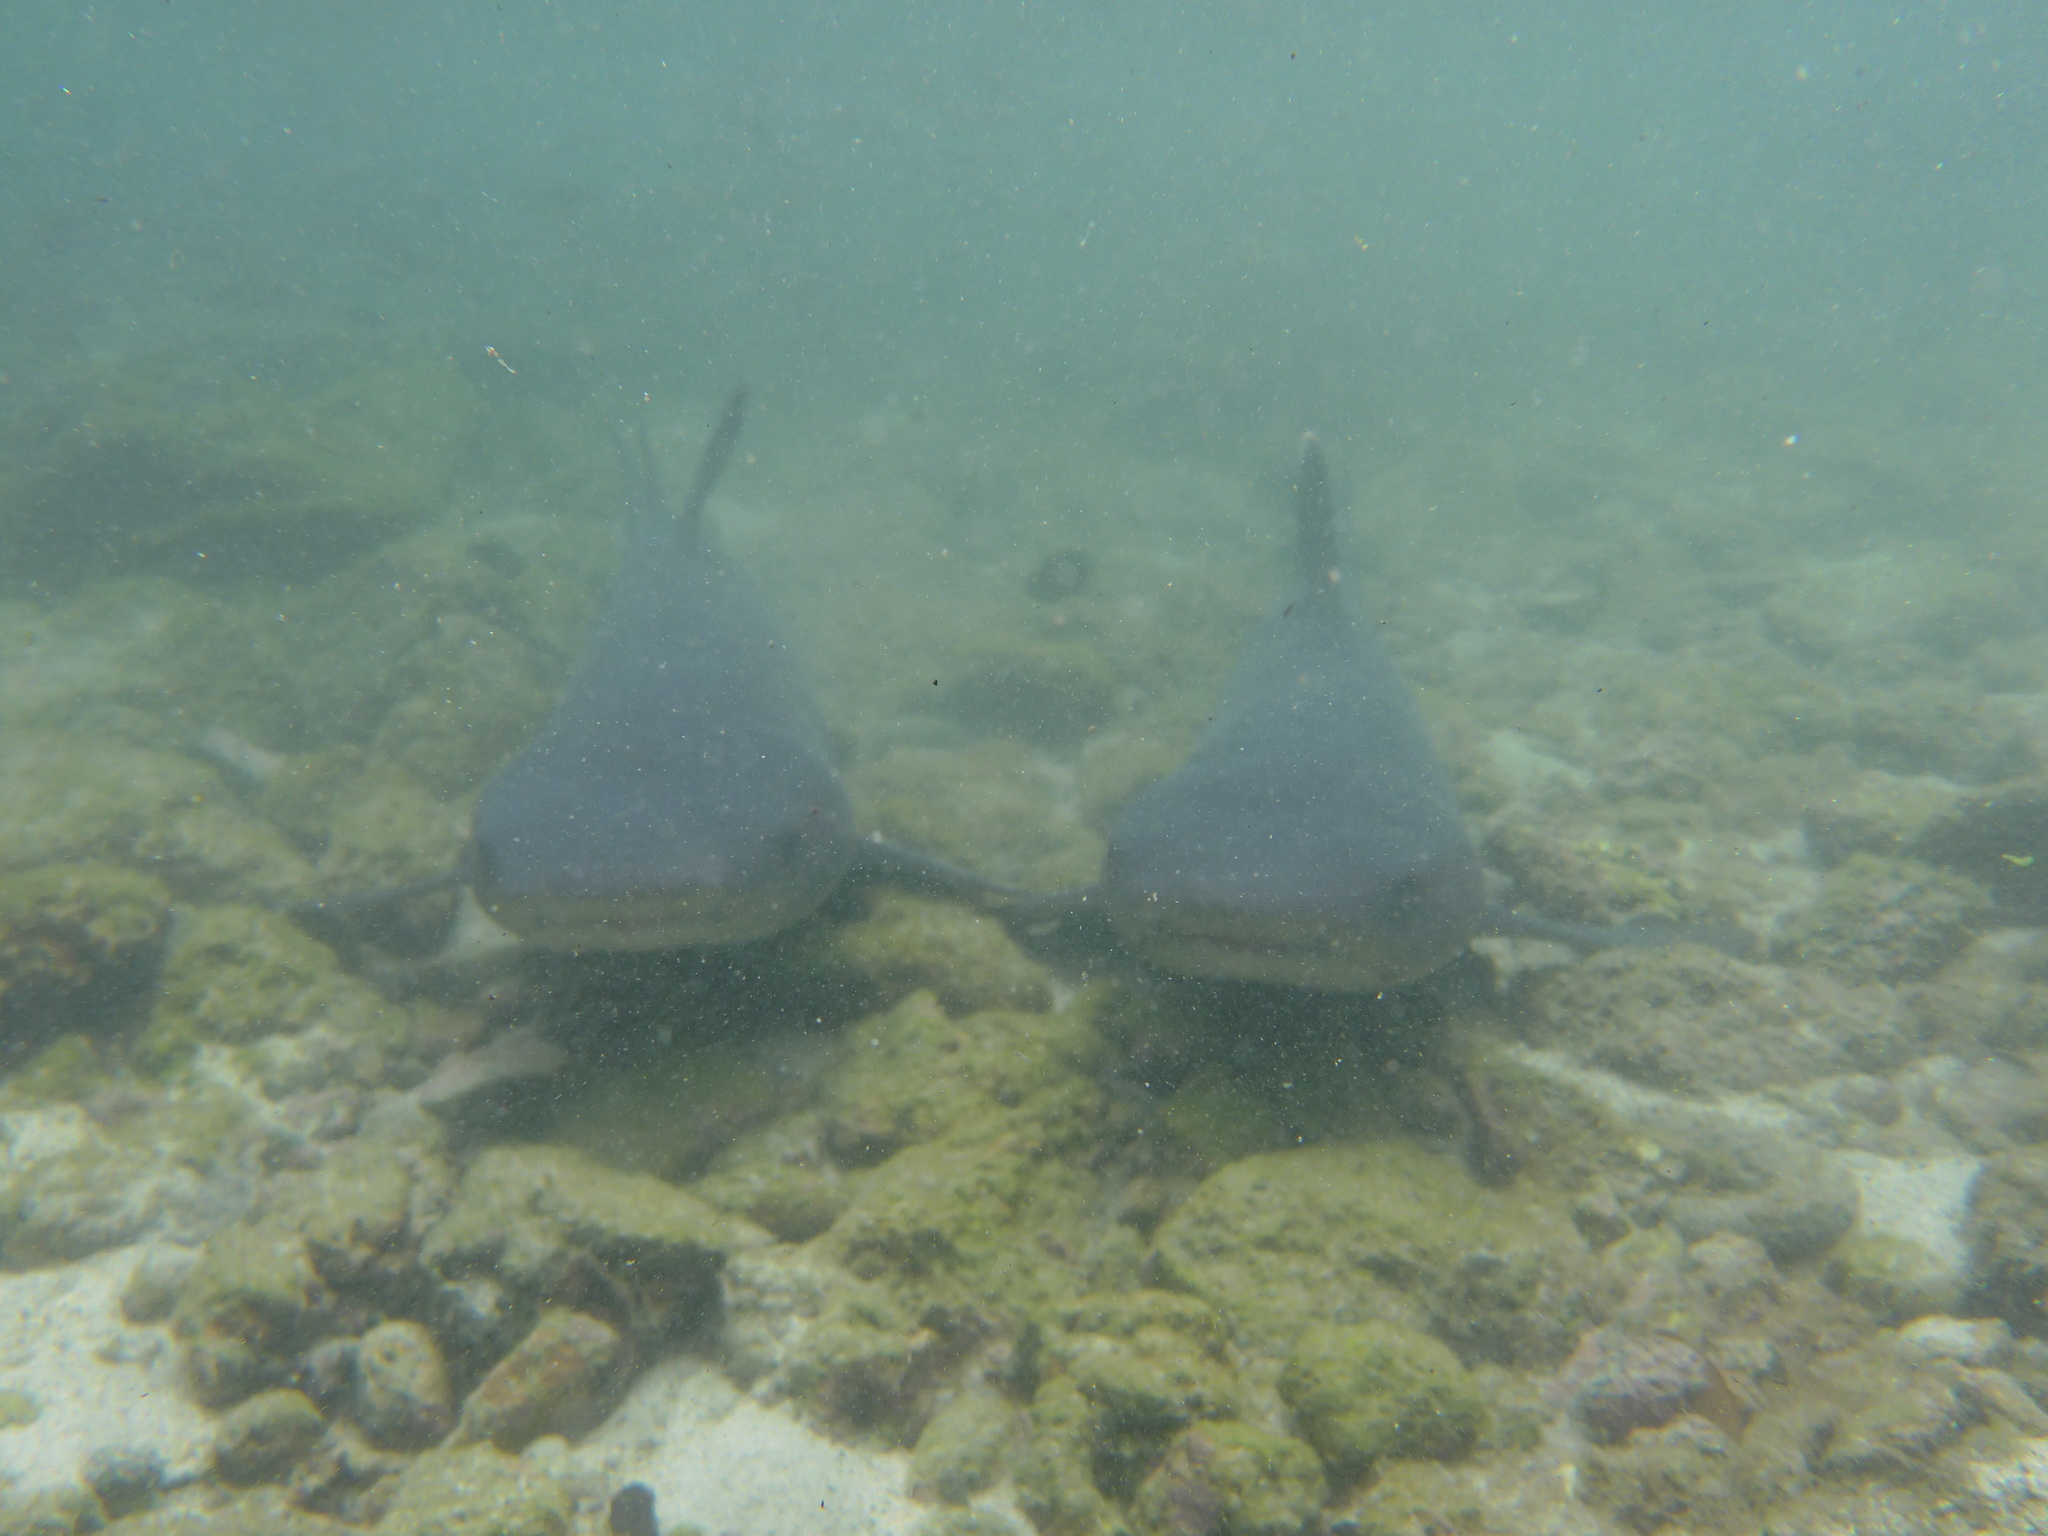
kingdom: Animalia
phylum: Chordata
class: Elasmobranchii
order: Carcharhiniformes
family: Carcharhinidae
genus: Triaenodon
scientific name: Triaenodon obesus
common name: Whitetip reef shark
